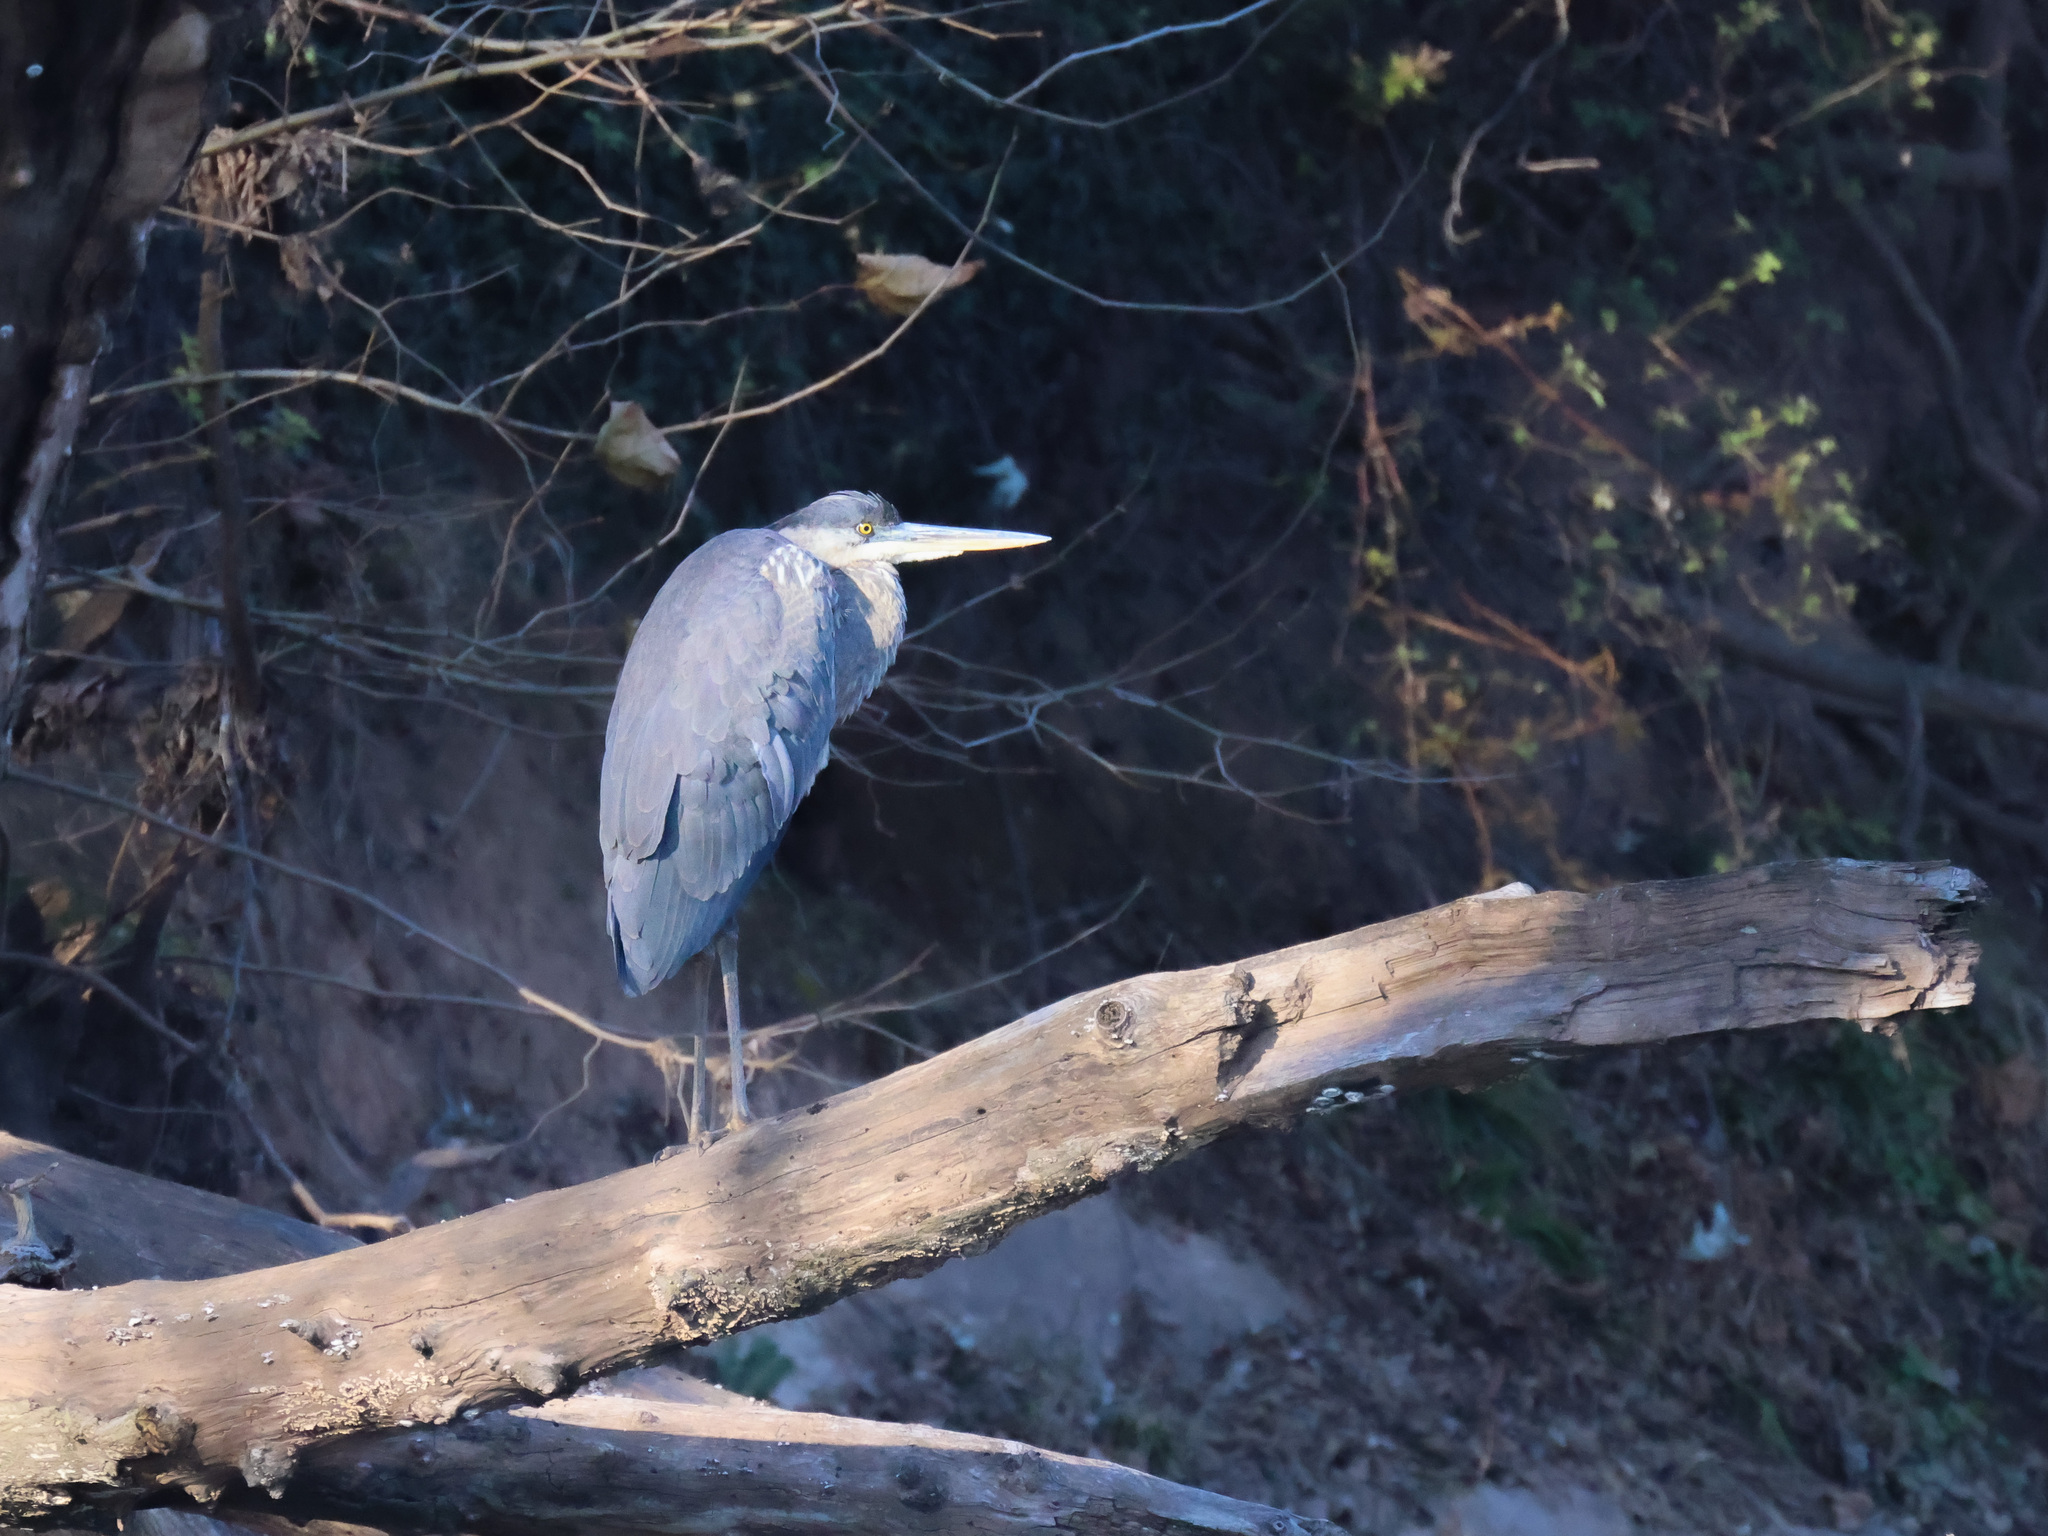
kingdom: Animalia
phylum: Chordata
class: Aves
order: Pelecaniformes
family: Ardeidae
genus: Ardea
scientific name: Ardea herodias
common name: Great blue heron
